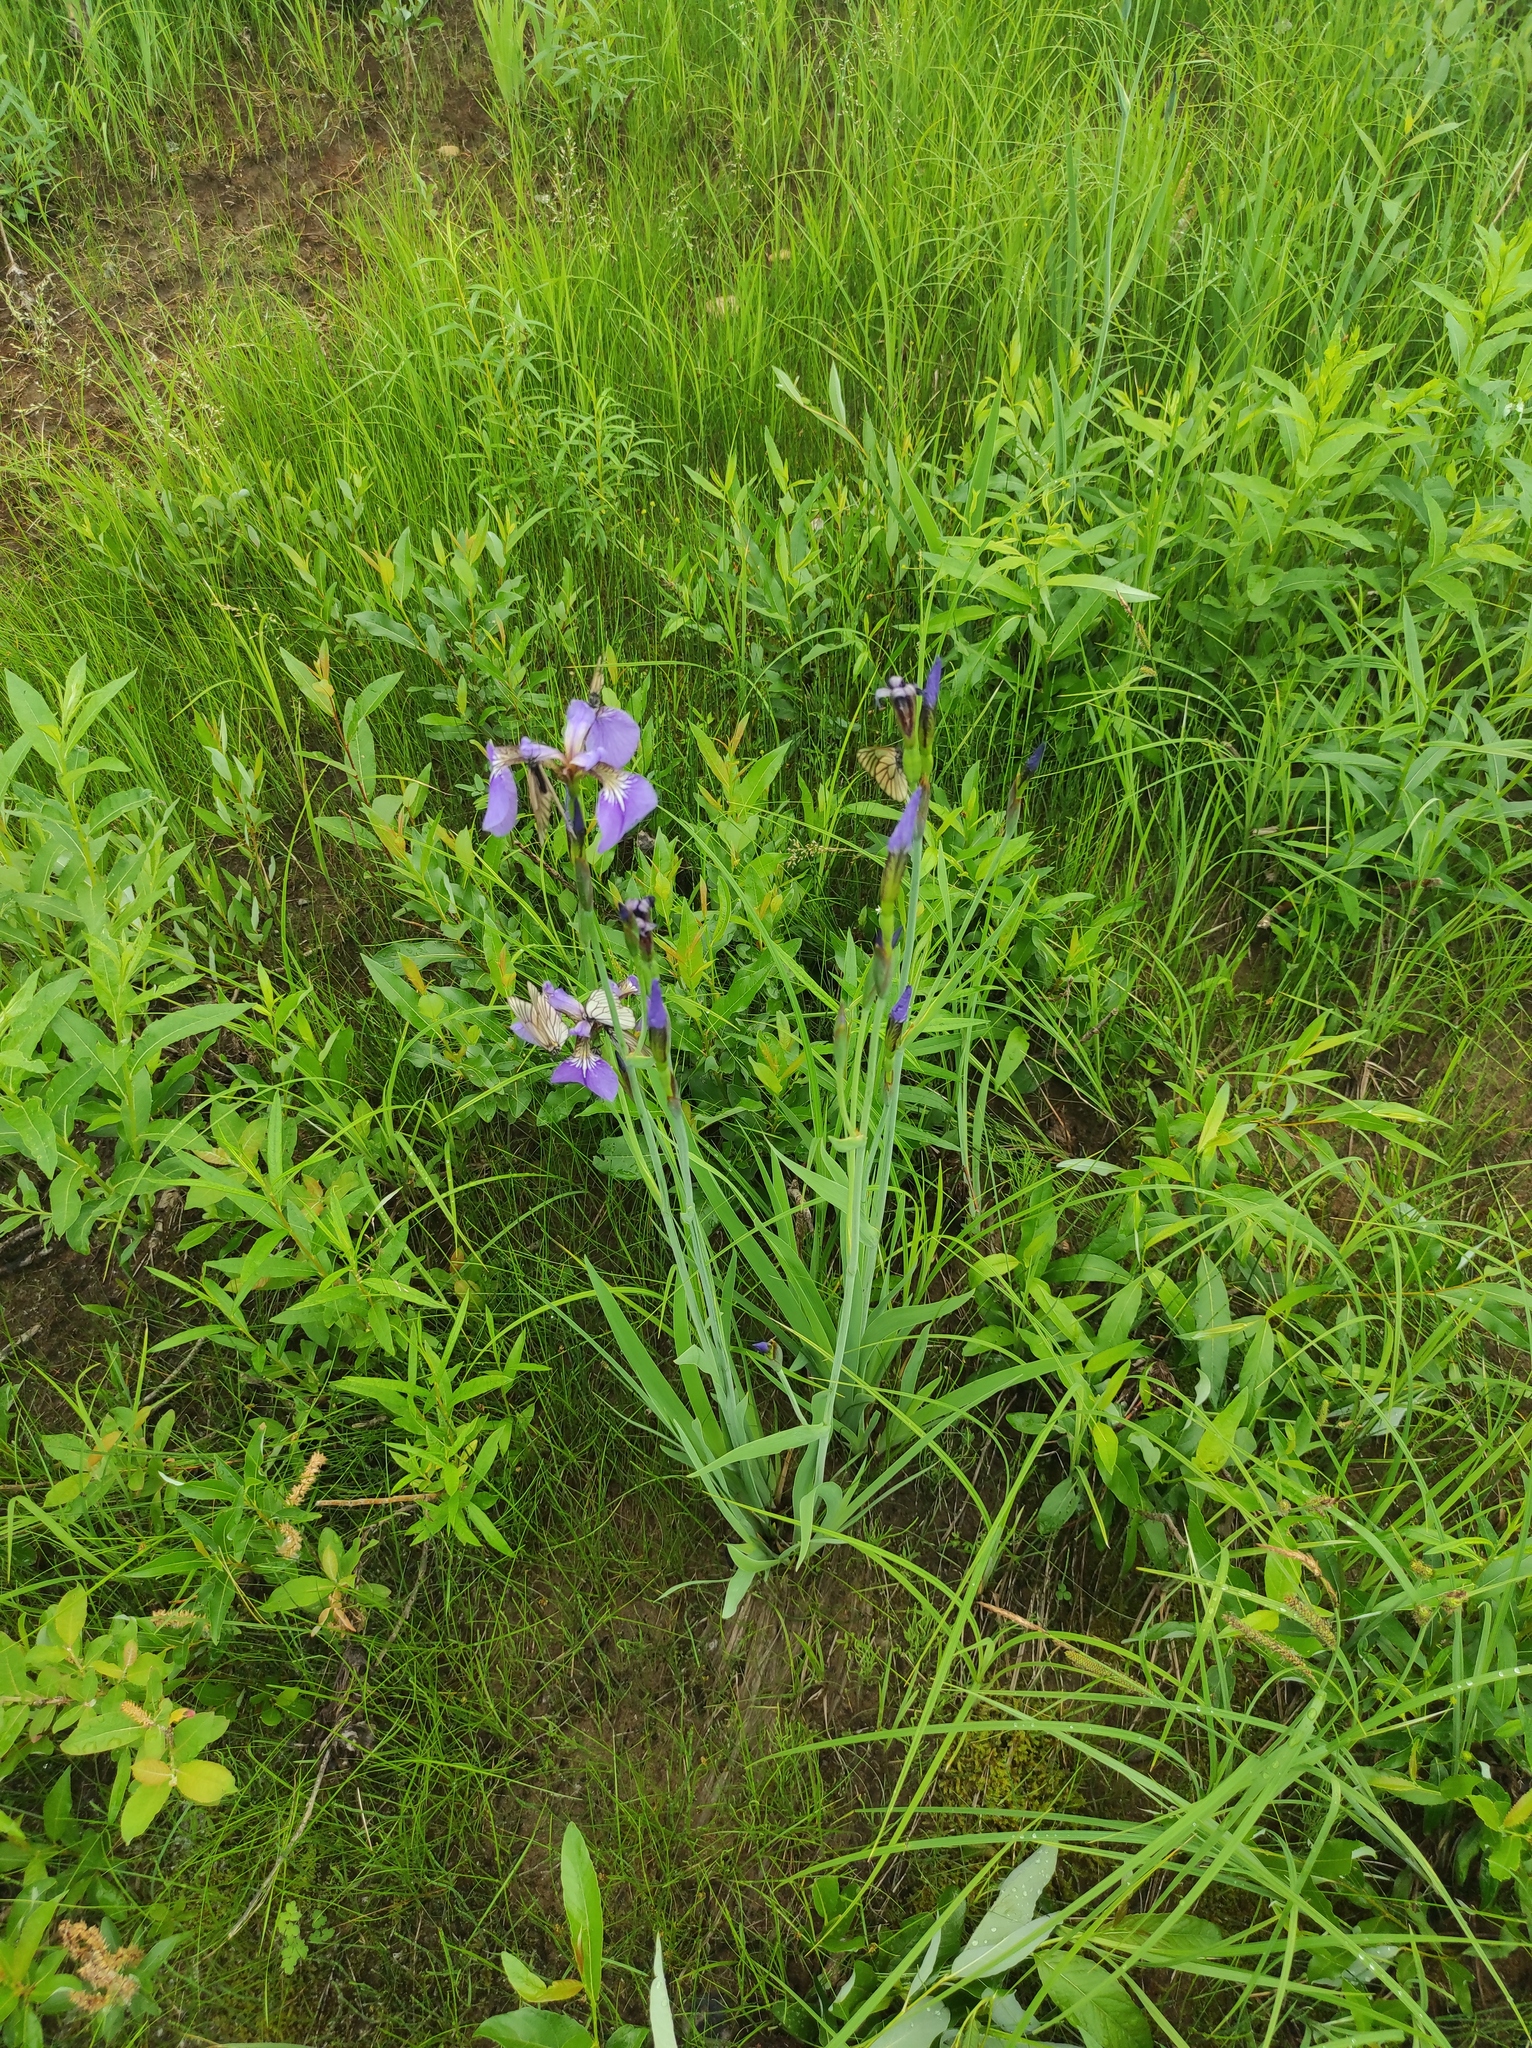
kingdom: Plantae
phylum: Tracheophyta
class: Liliopsida
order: Asparagales
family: Iridaceae
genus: Iris
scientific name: Iris setosa
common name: Arctic blue flag
